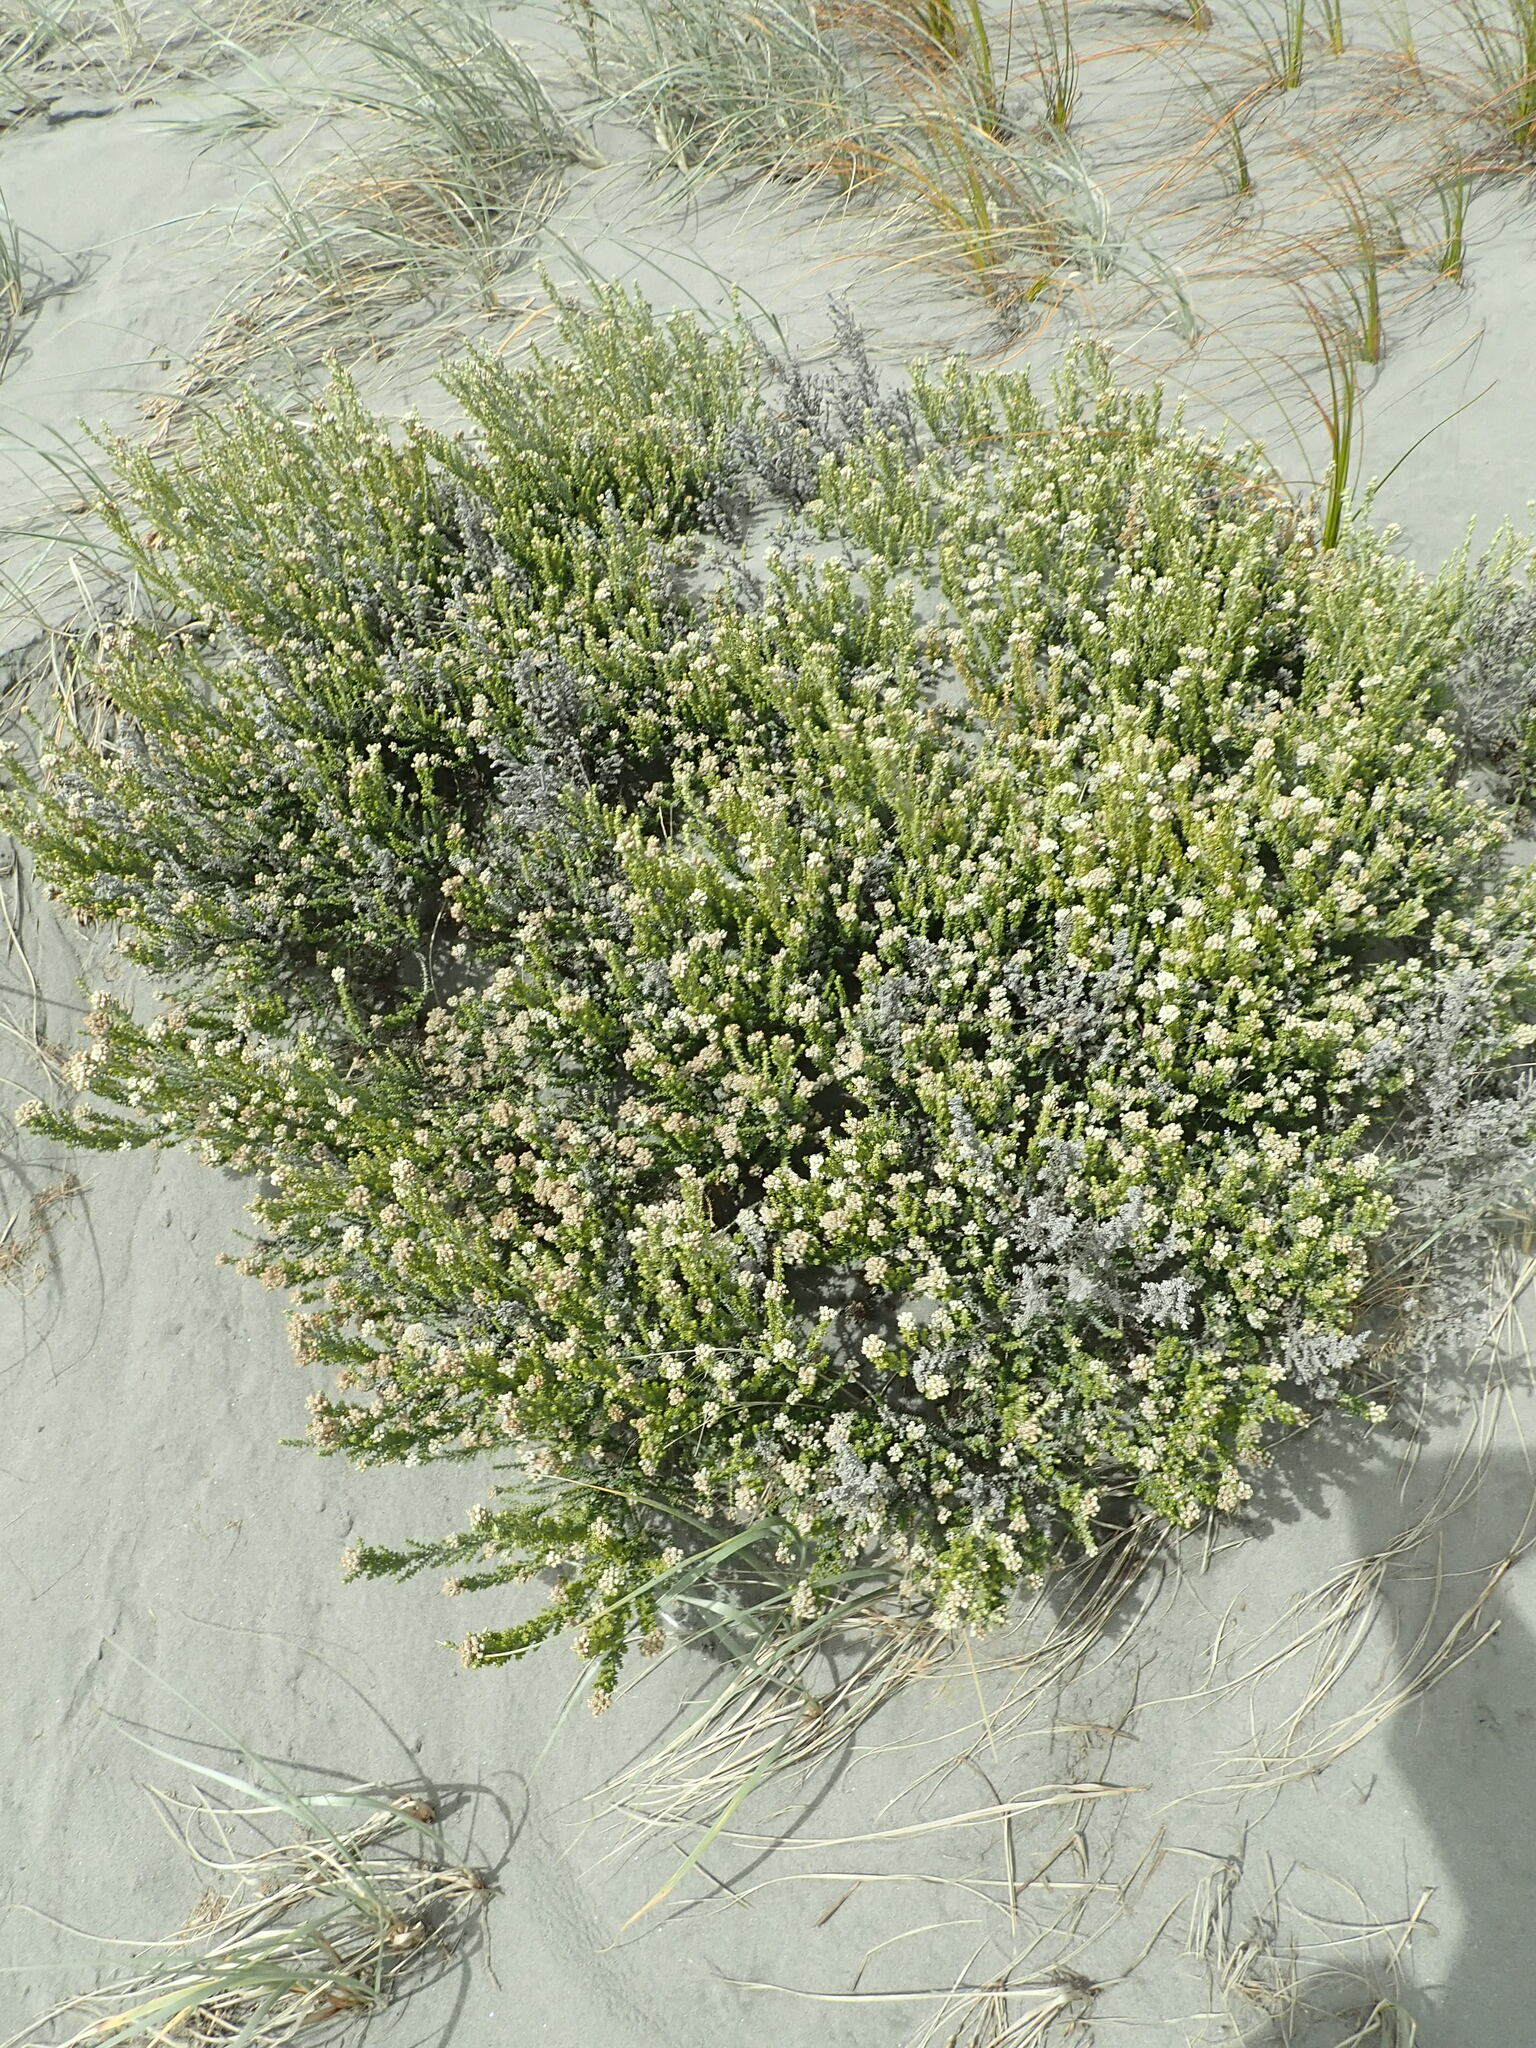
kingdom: Plantae
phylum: Tracheophyta
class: Magnoliopsida
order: Asterales
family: Asteraceae
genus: Ozothamnus
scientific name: Ozothamnus leptophyllus
